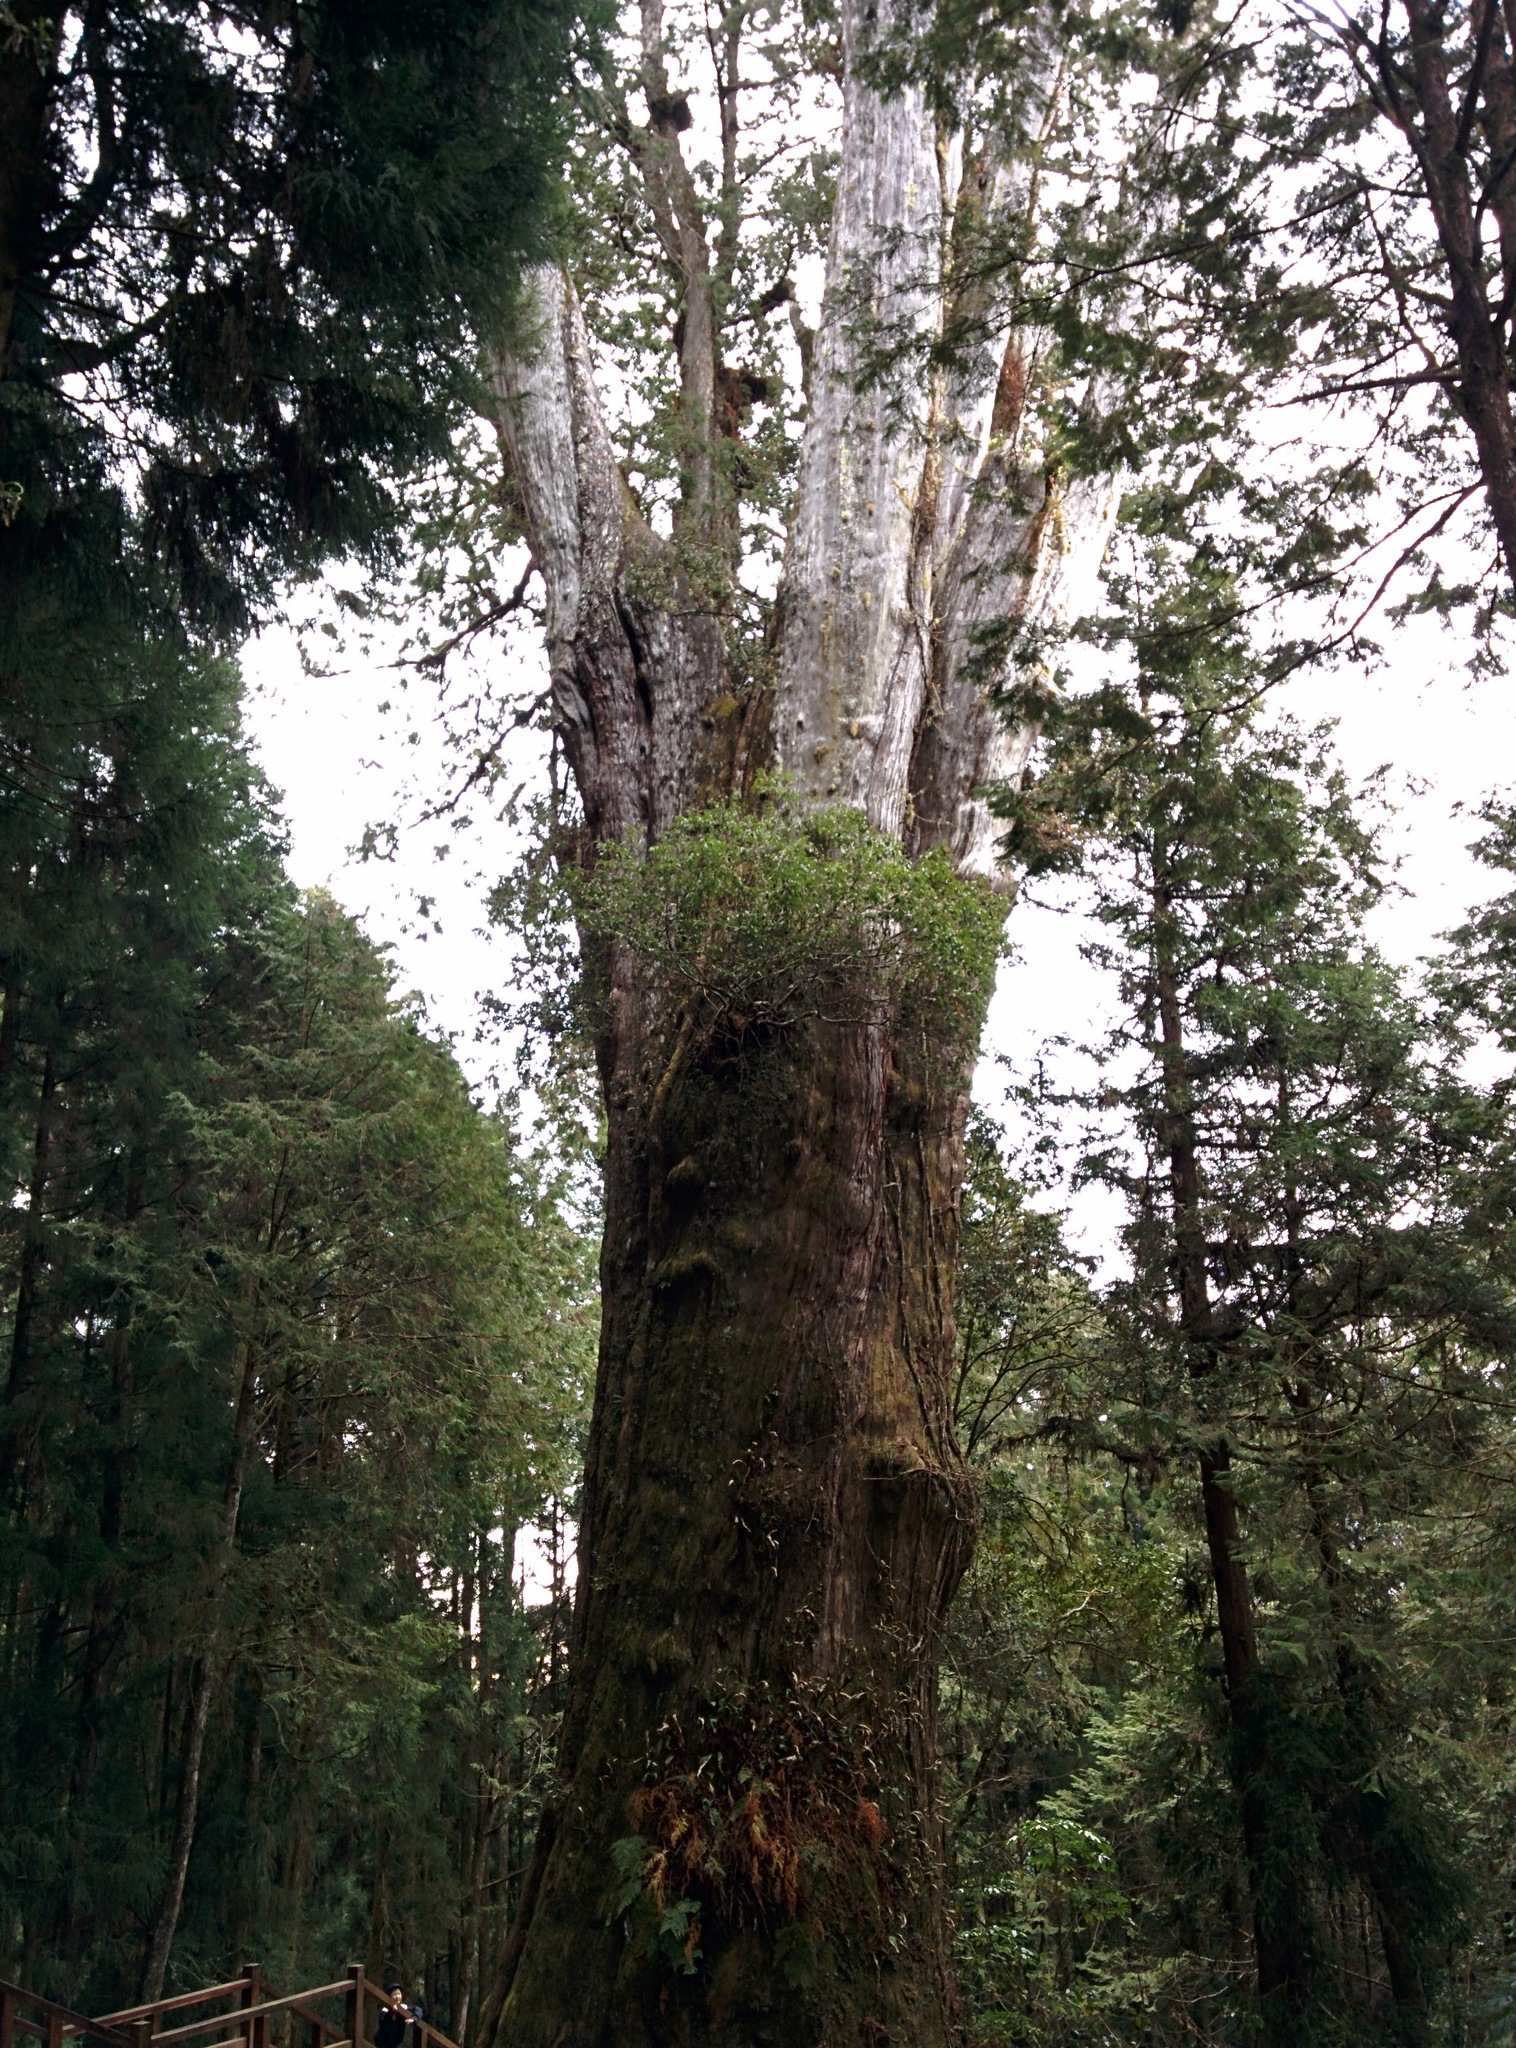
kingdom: Plantae
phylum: Tracheophyta
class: Pinopsida
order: Pinales
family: Cupressaceae
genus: Chamaecyparis
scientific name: Chamaecyparis formosensis
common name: Formosan cypress
